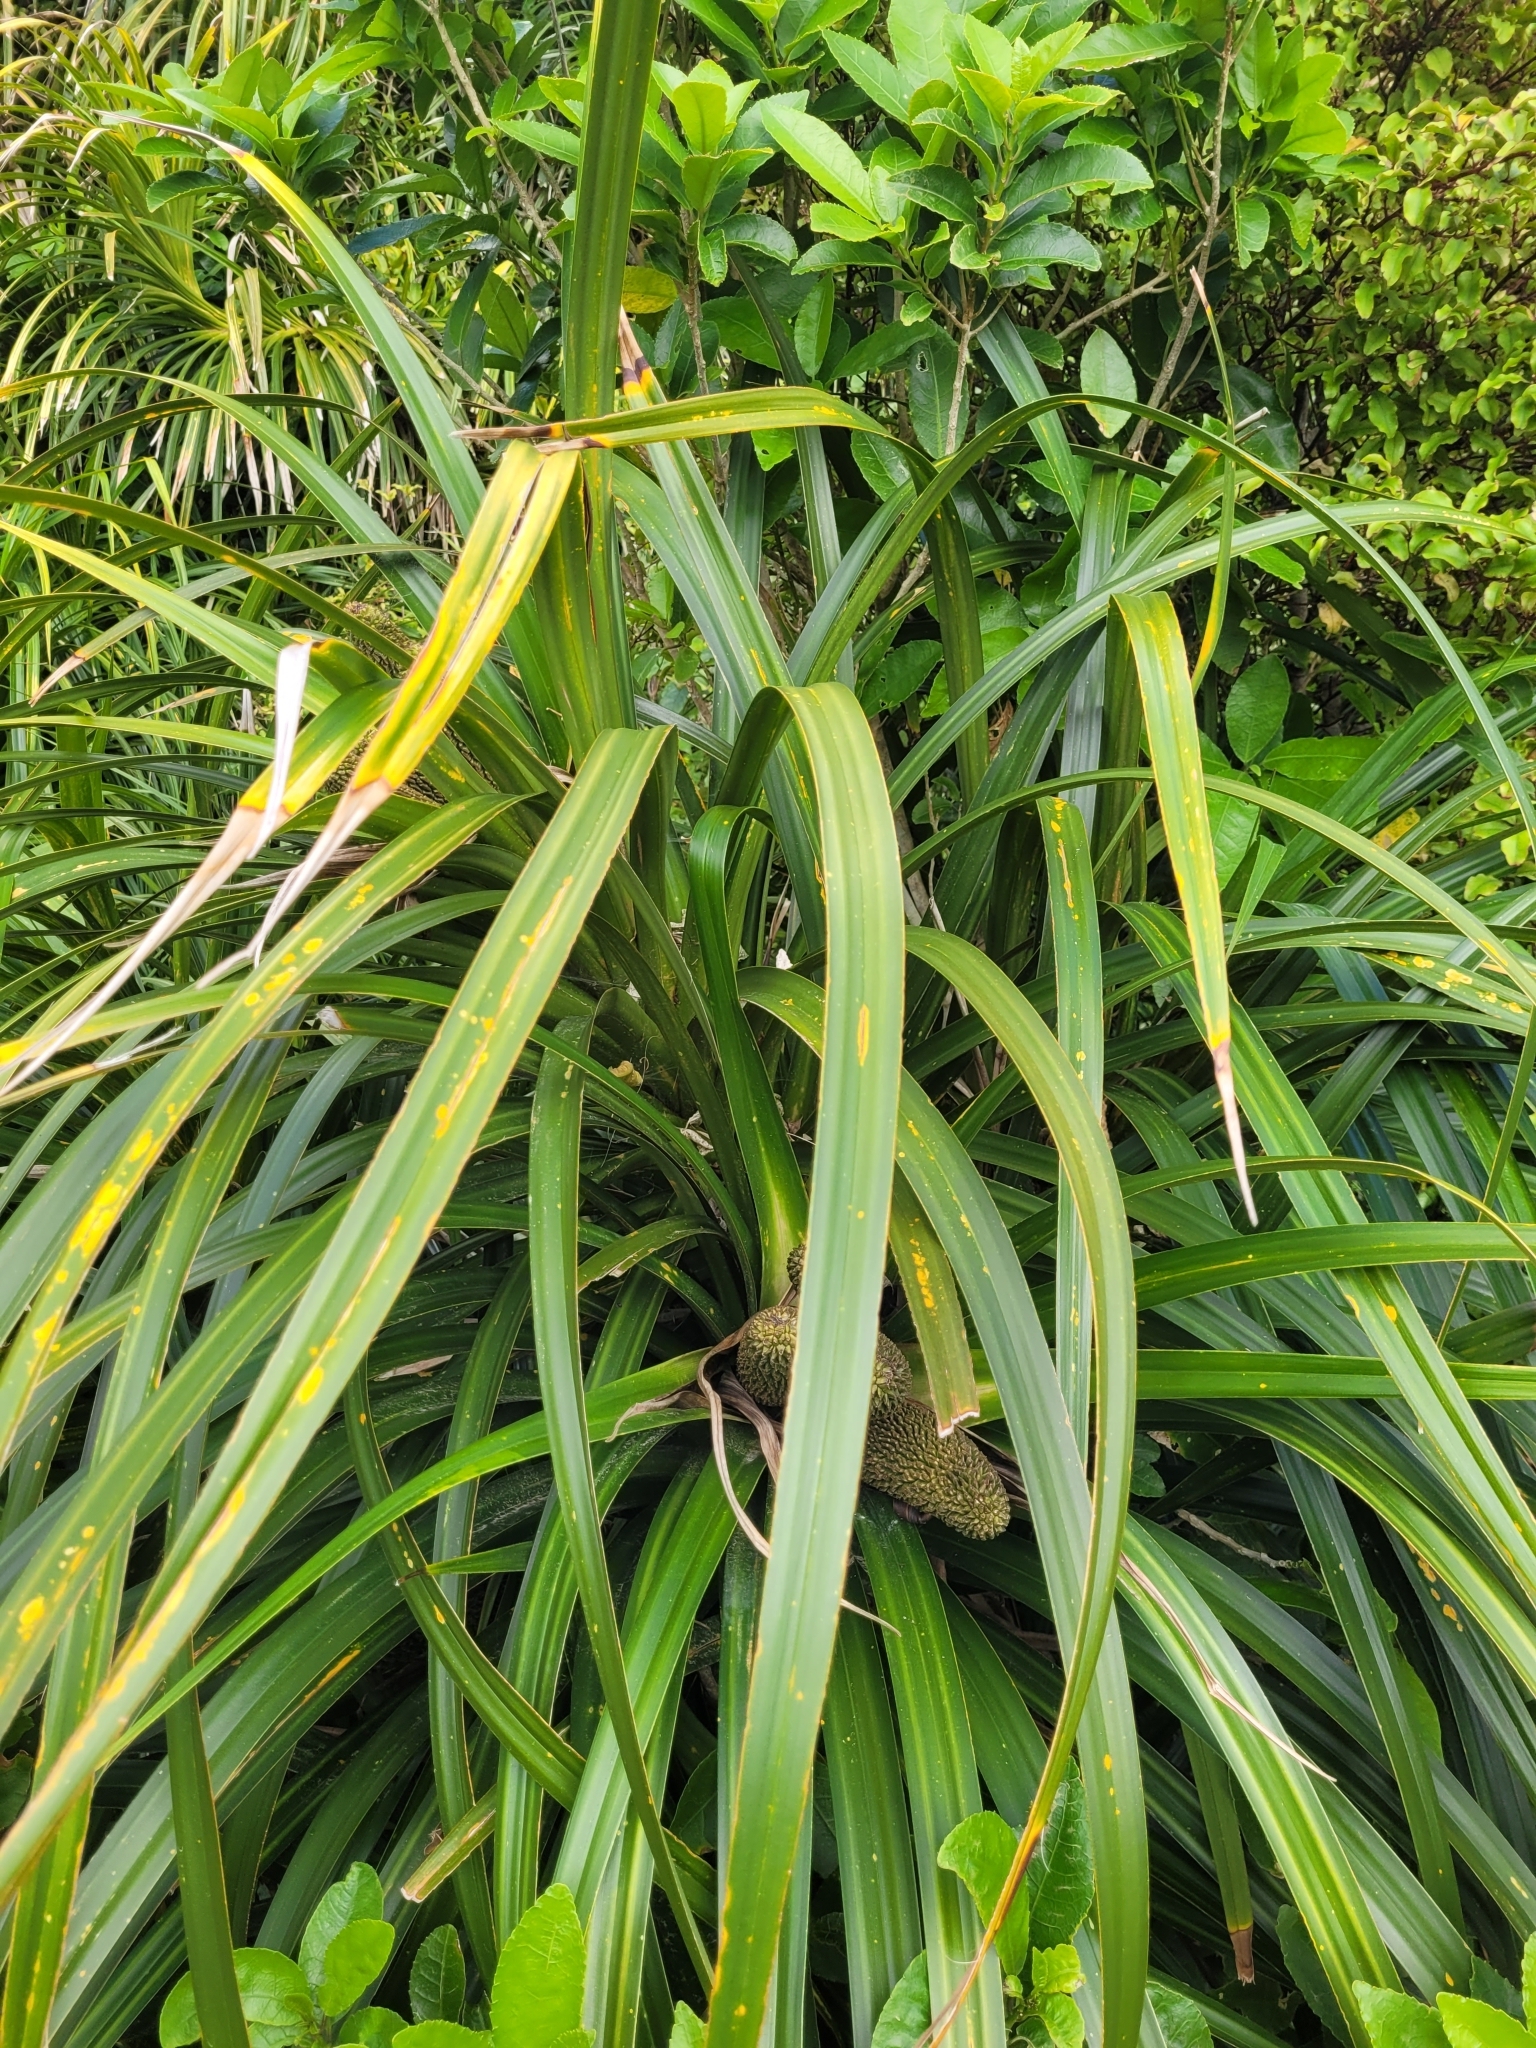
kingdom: Plantae
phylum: Tracheophyta
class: Liliopsida
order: Pandanales
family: Pandanaceae
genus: Freycinetia
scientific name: Freycinetia banksii
